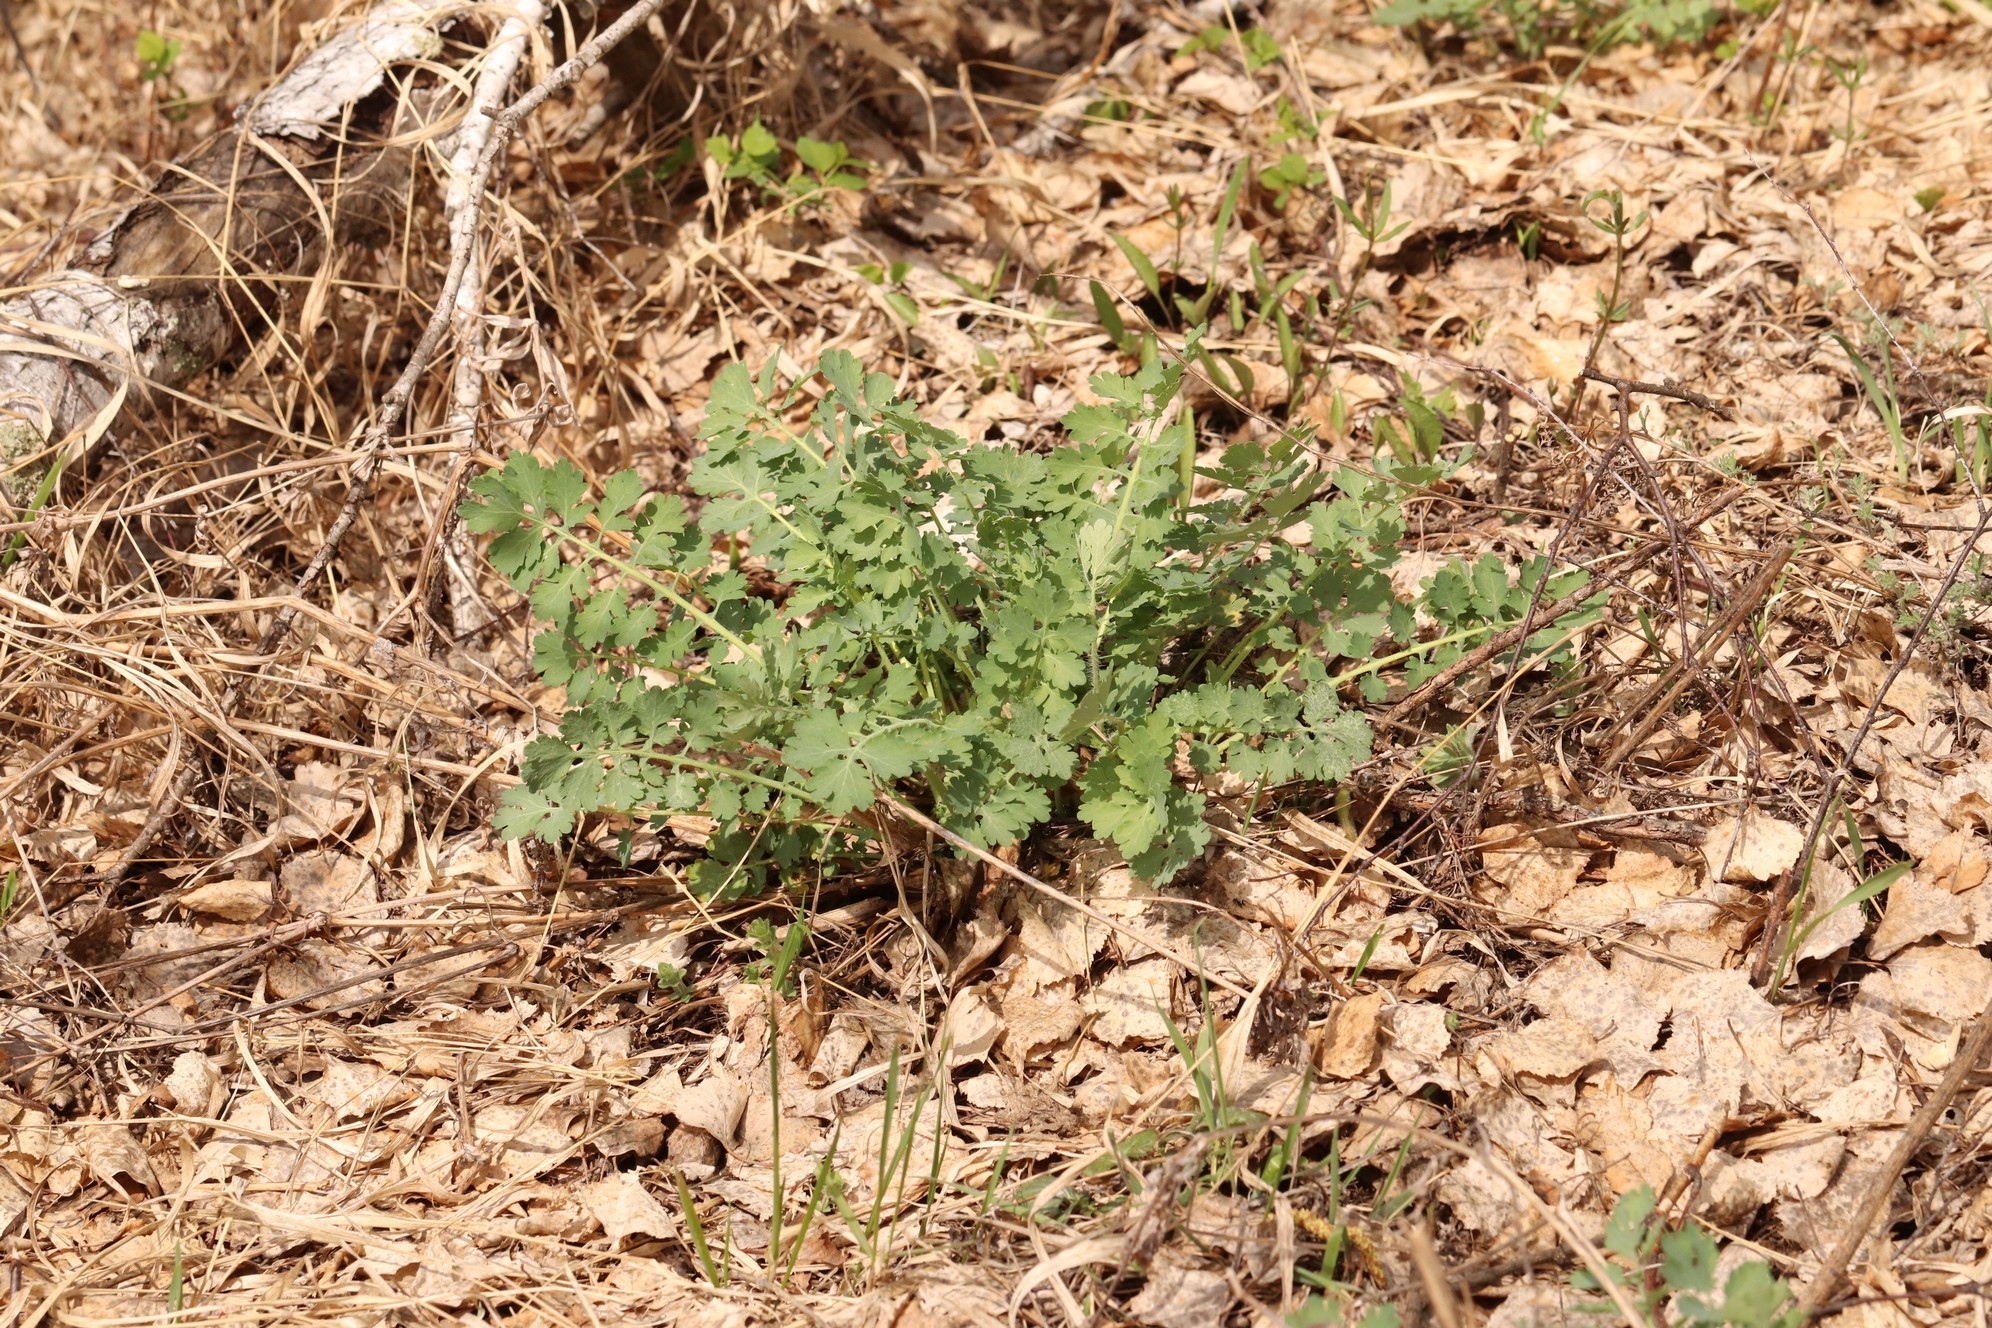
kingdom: Plantae
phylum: Tracheophyta
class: Magnoliopsida
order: Ranunculales
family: Papaveraceae
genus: Chelidonium
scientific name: Chelidonium majus
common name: Greater celandine
